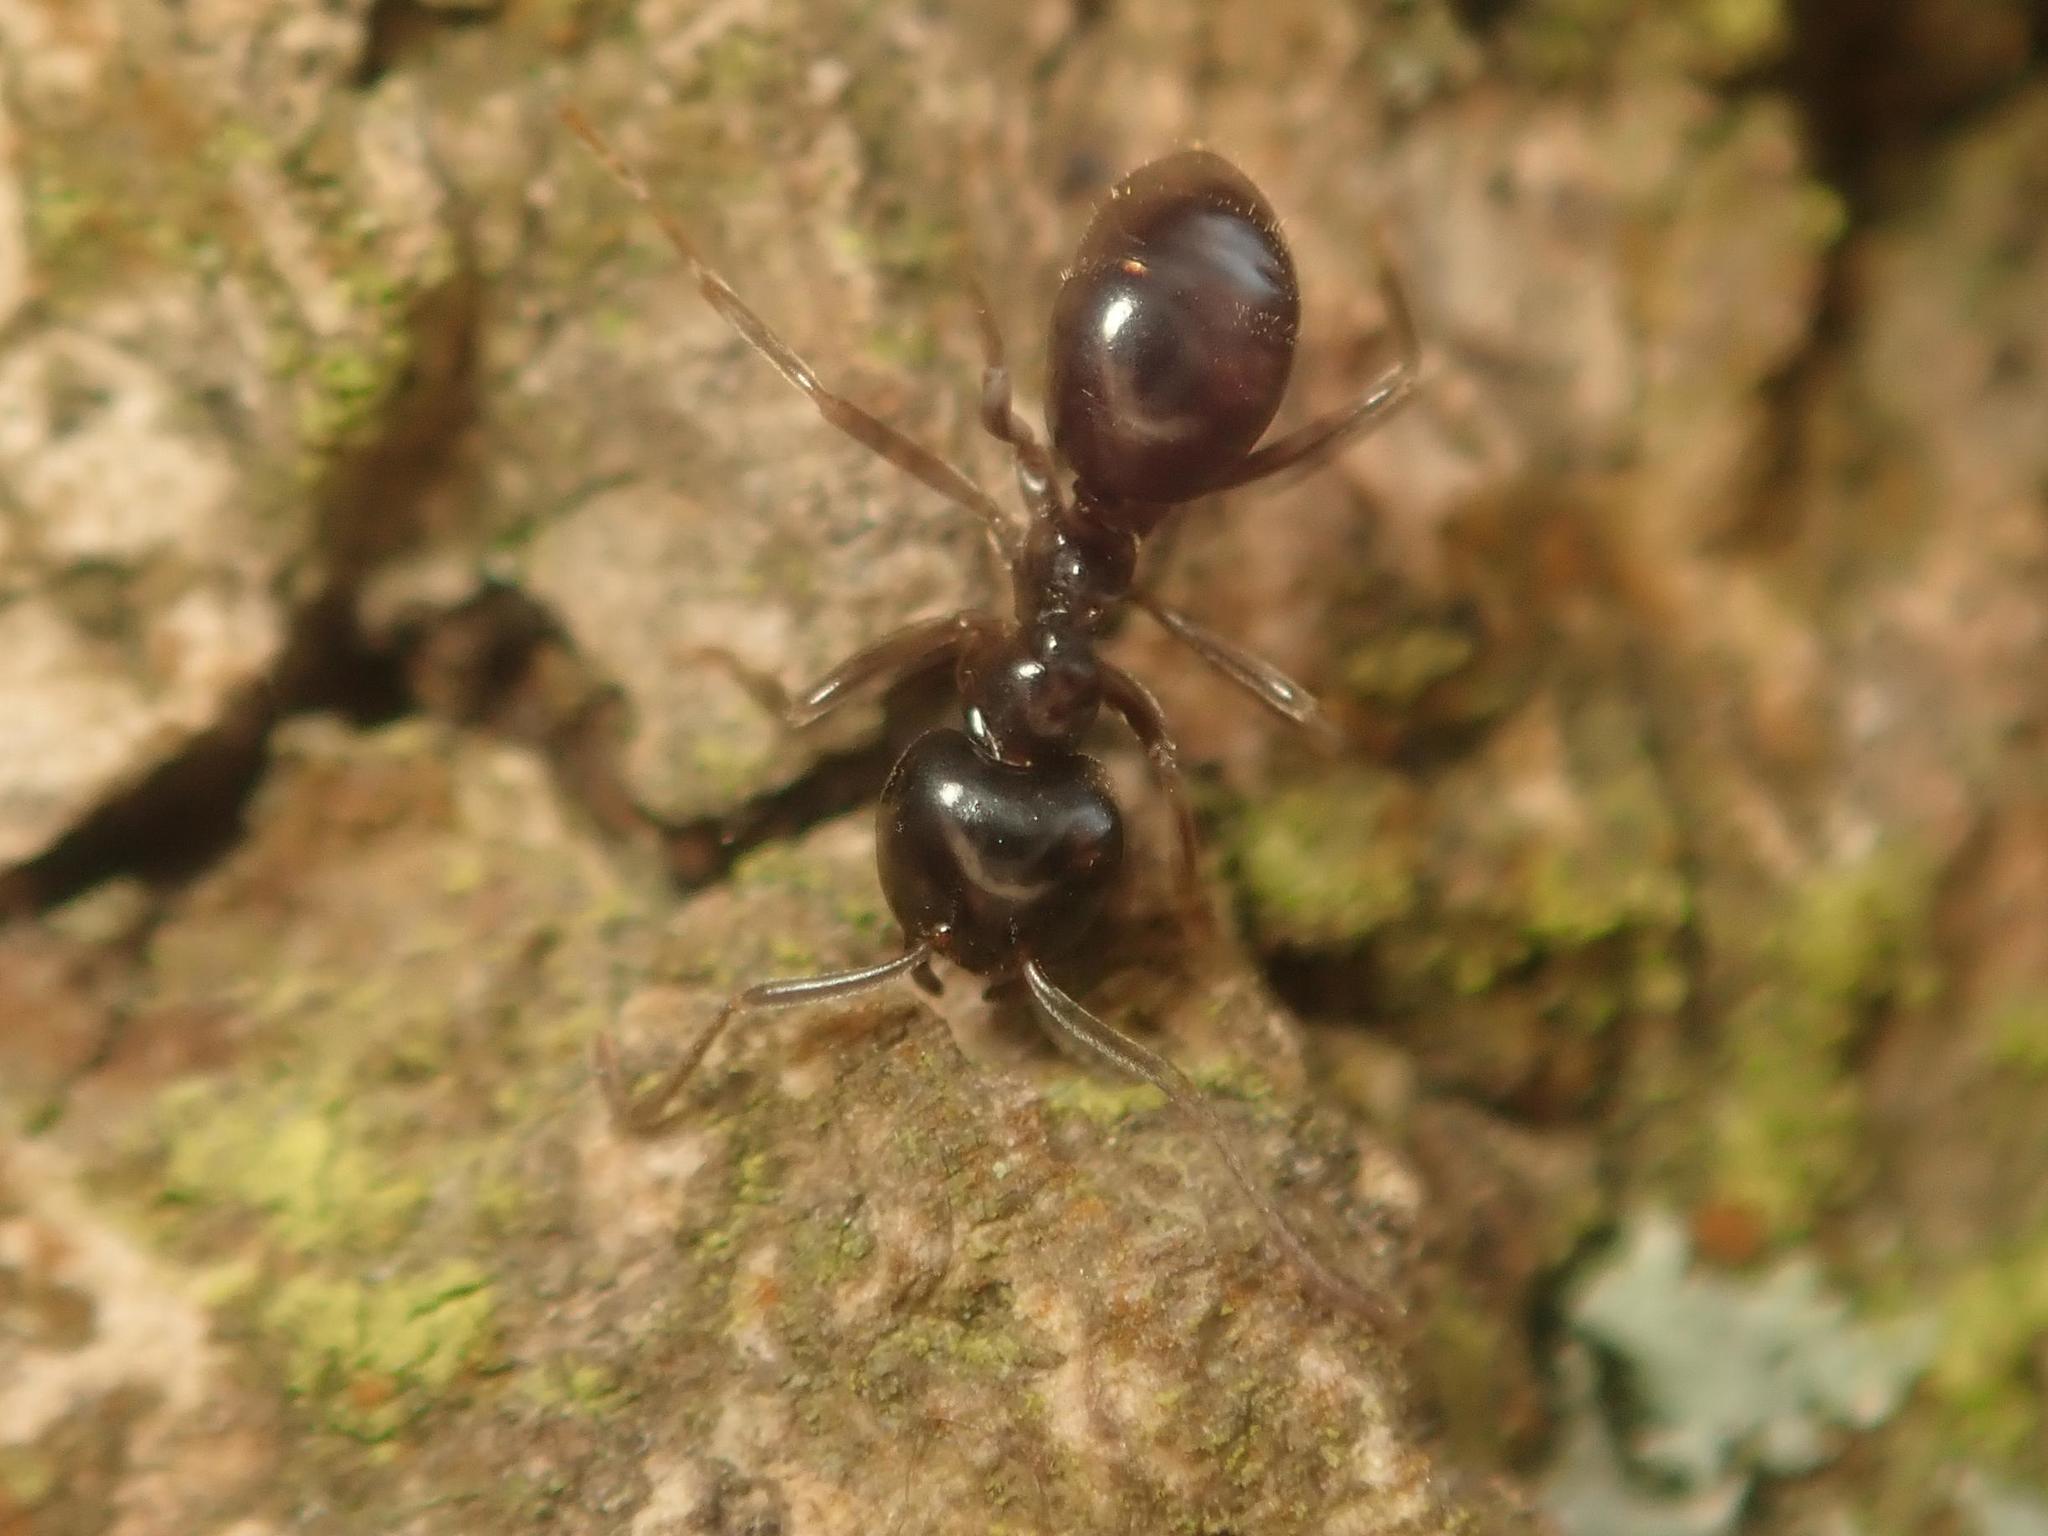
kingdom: Animalia
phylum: Arthropoda
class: Insecta
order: Hymenoptera
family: Formicidae
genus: Lasius
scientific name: Lasius fuliginosus
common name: Jet ant
